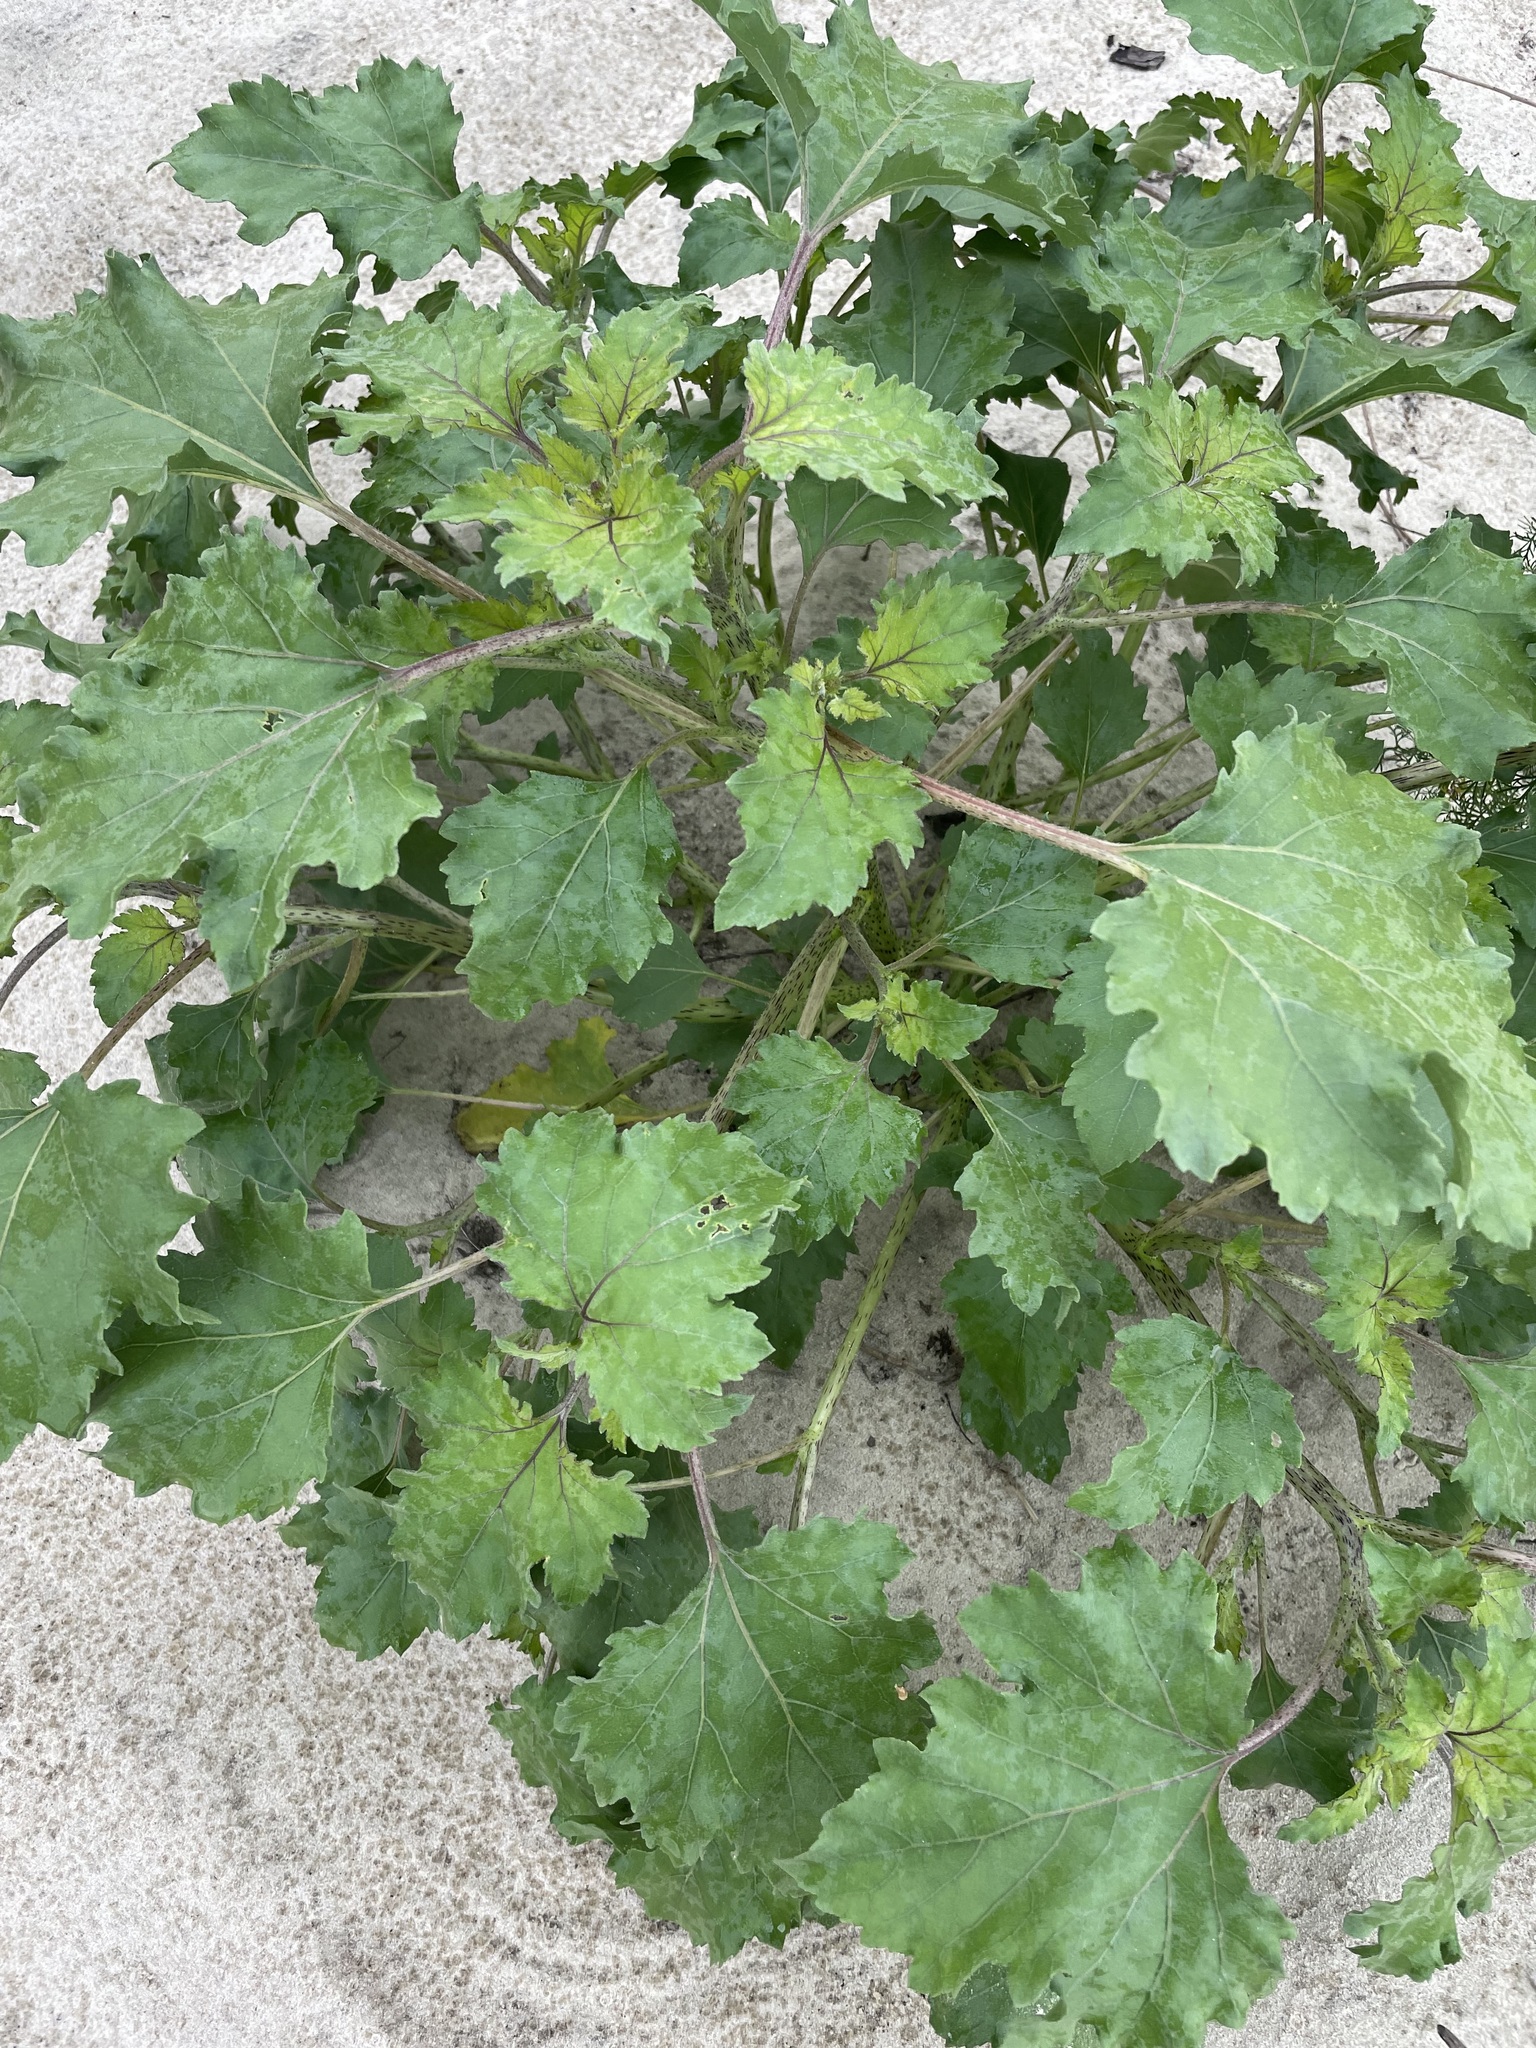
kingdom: Plantae
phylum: Tracheophyta
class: Magnoliopsida
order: Asterales
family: Asteraceae
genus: Xanthium
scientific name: Xanthium orientale
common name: Californian burr
